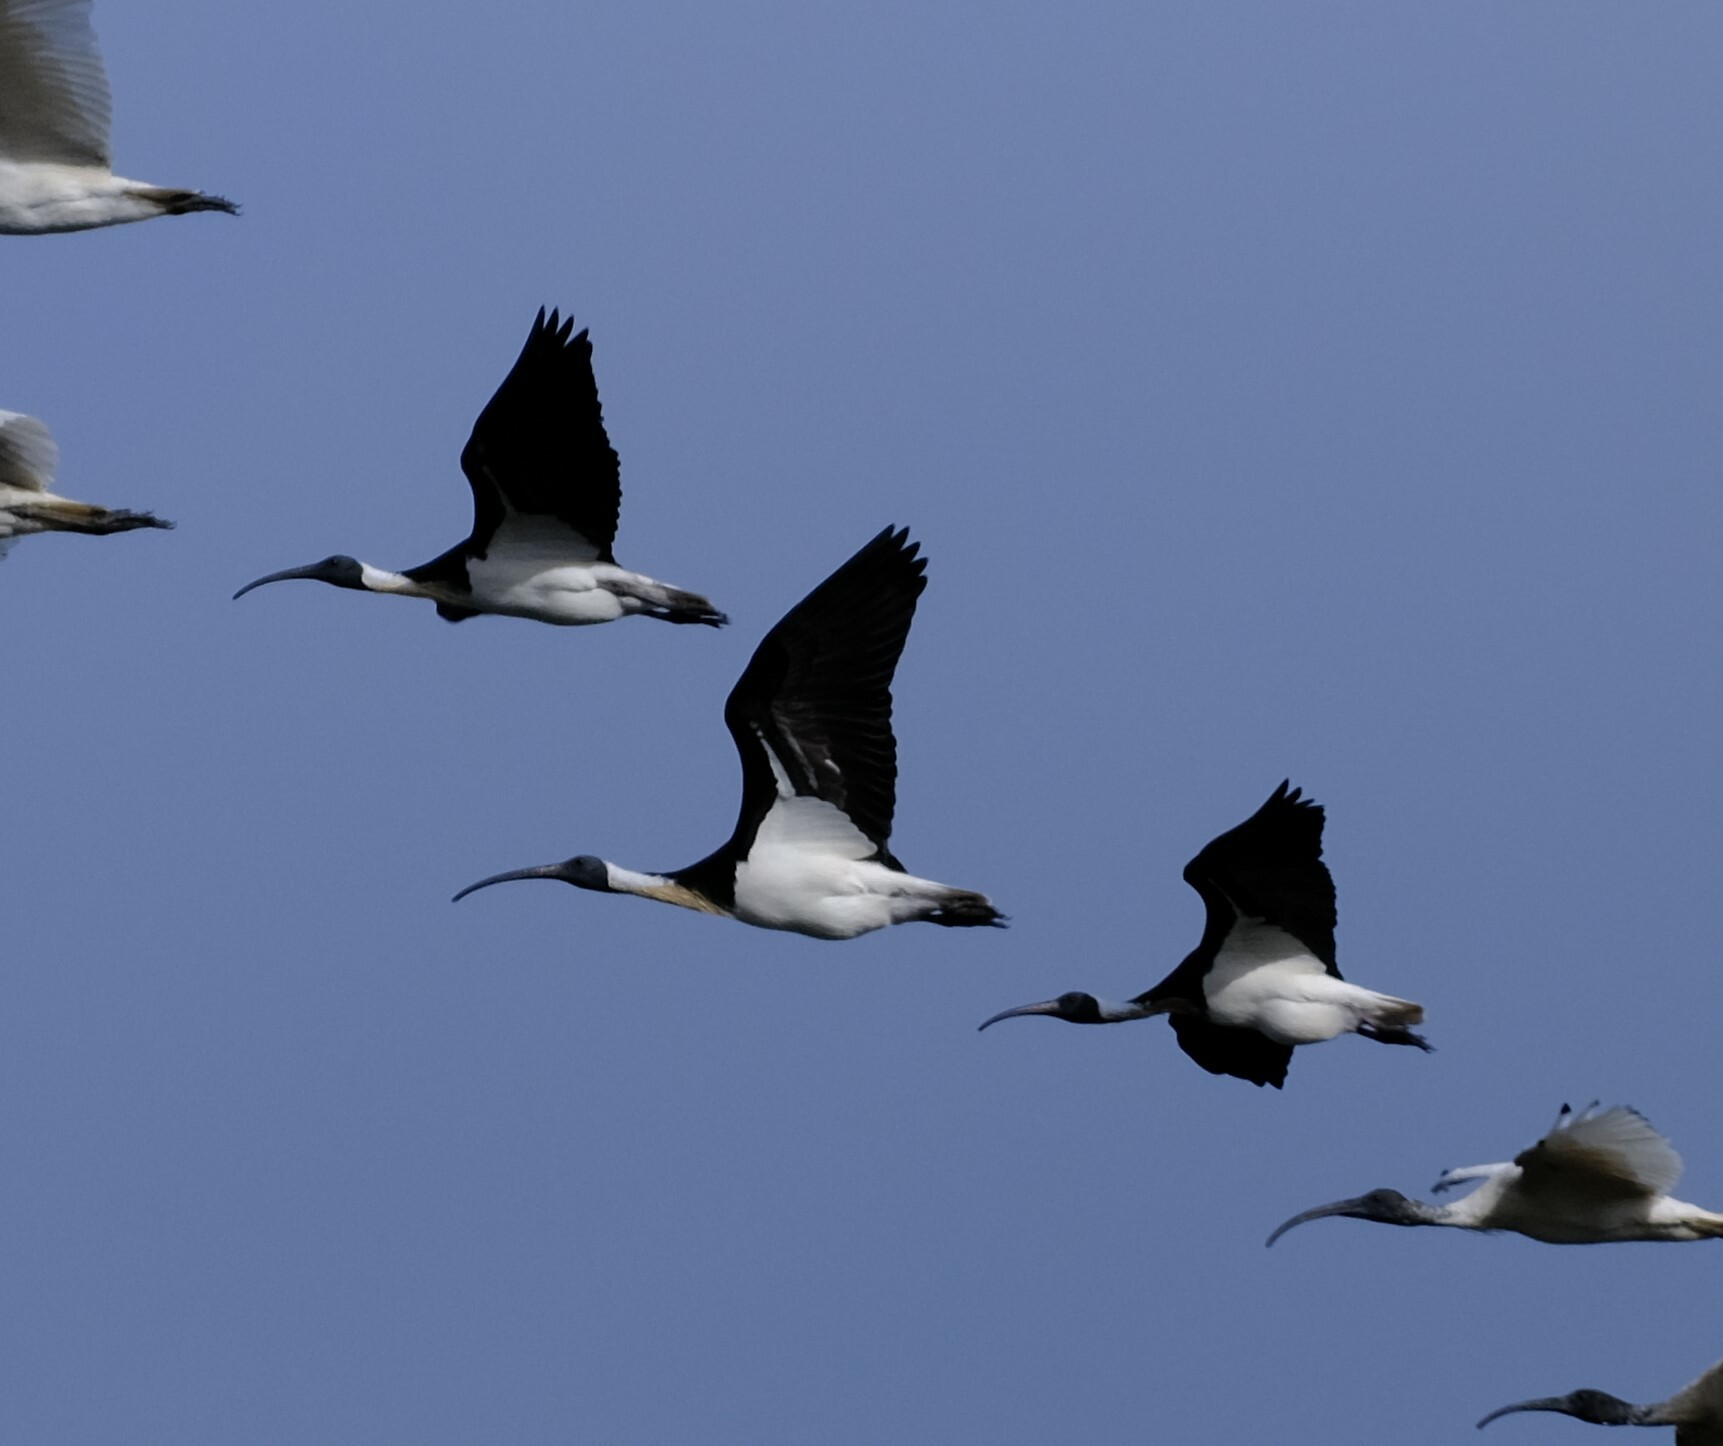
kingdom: Animalia
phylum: Chordata
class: Aves
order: Pelecaniformes
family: Threskiornithidae
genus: Threskiornis
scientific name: Threskiornis spinicollis
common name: Straw-necked ibis
